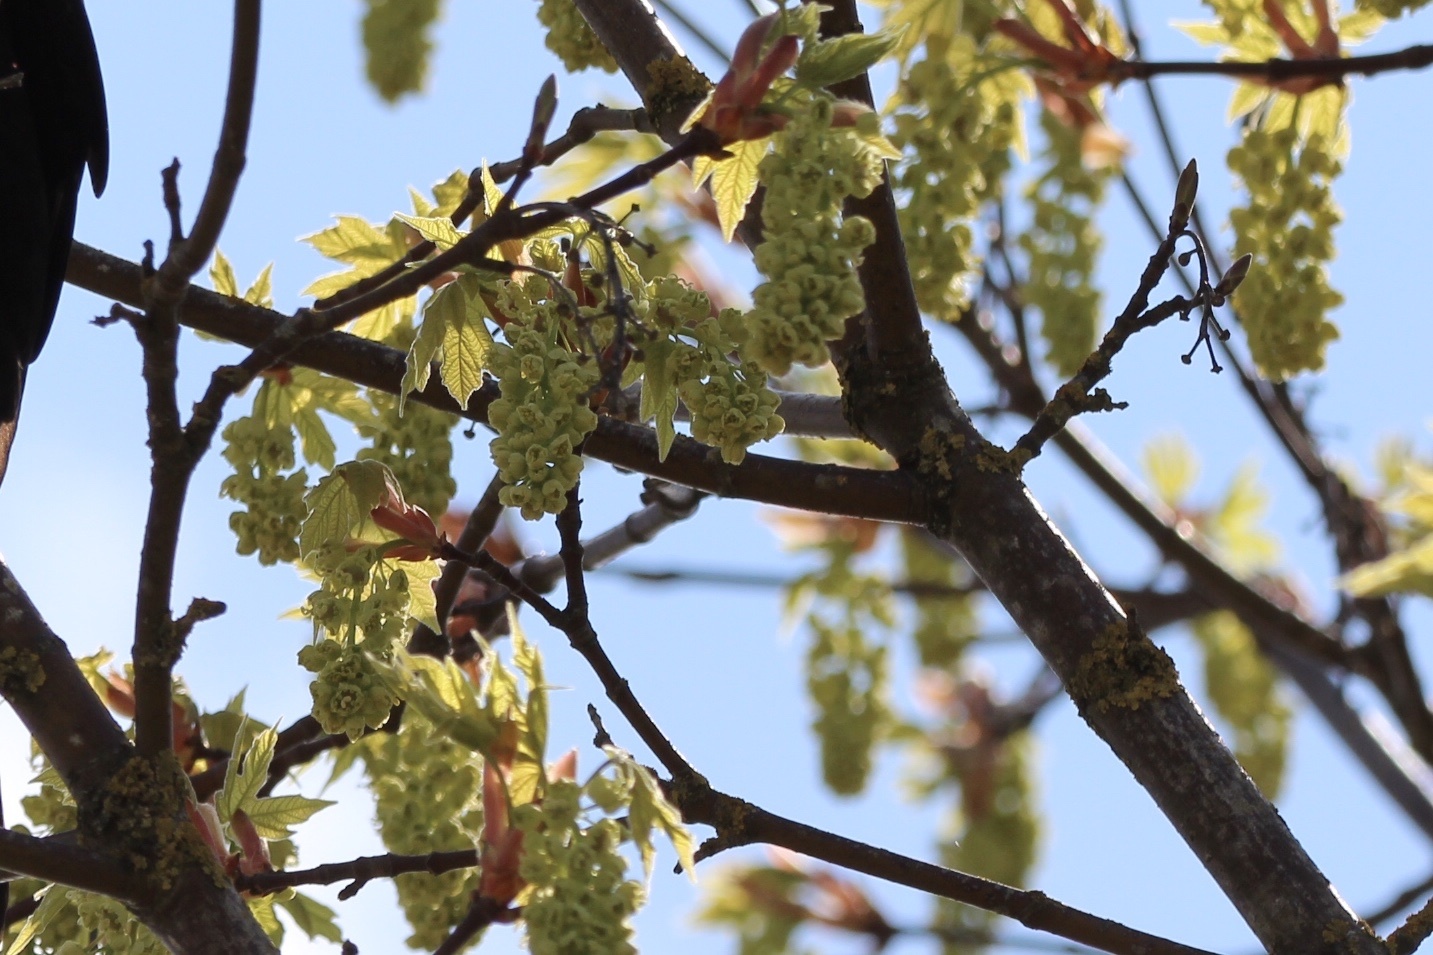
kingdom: Plantae
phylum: Tracheophyta
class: Magnoliopsida
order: Sapindales
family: Sapindaceae
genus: Acer
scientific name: Acer macrophyllum
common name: Oregon maple
